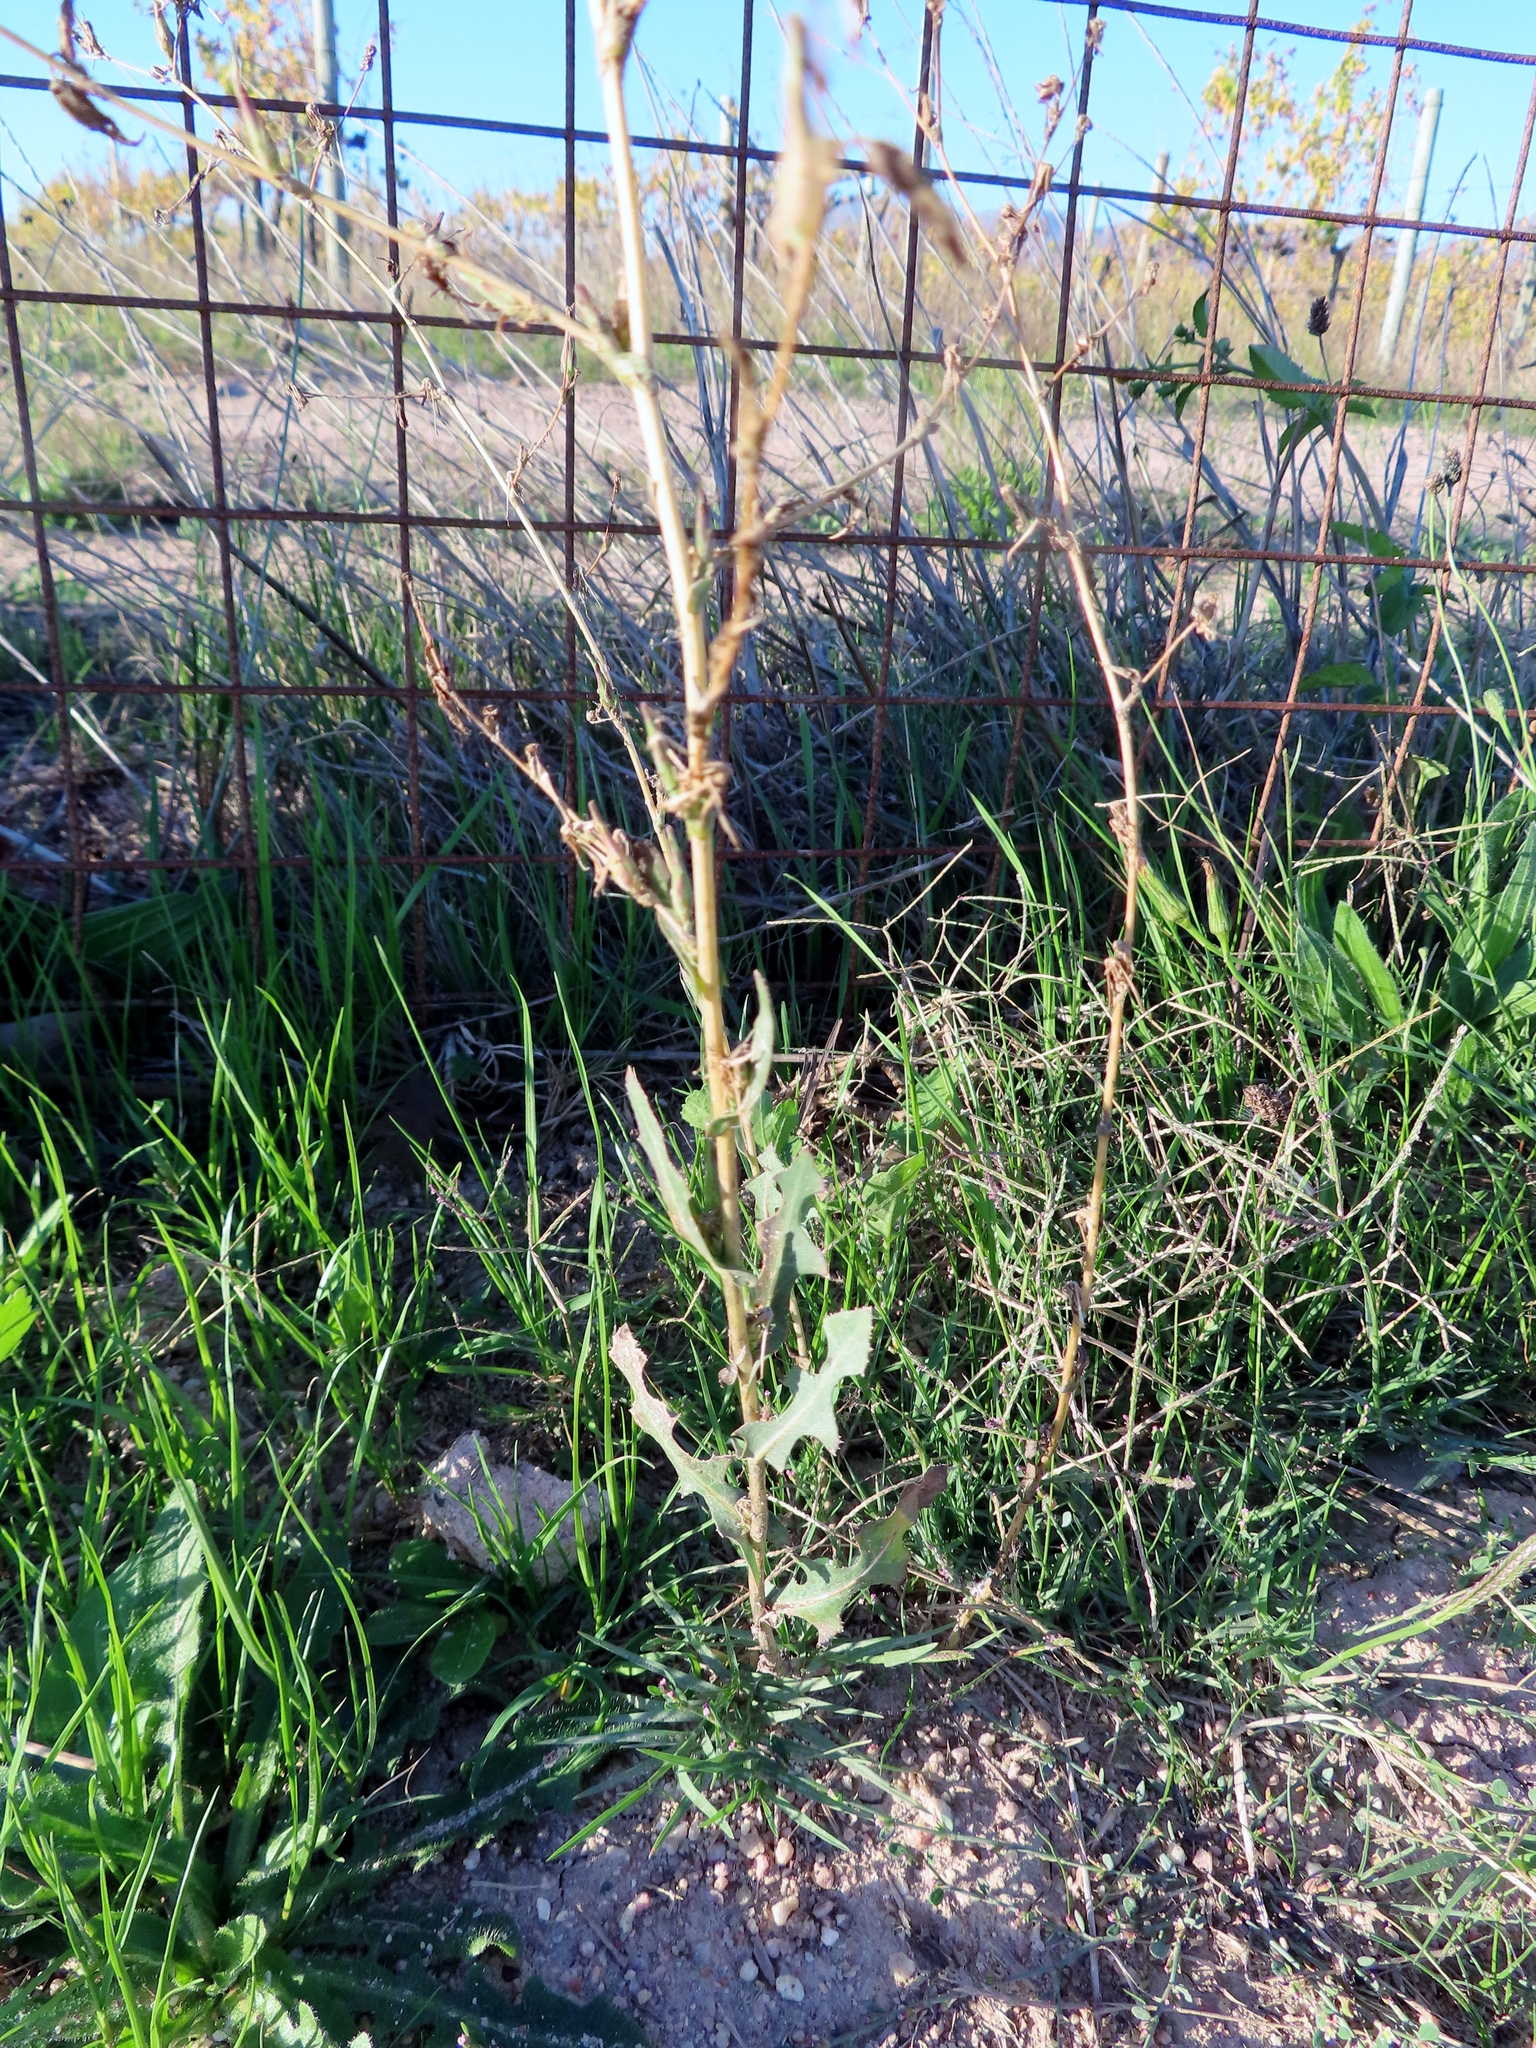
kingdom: Plantae
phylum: Tracheophyta
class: Magnoliopsida
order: Asterales
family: Asteraceae
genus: Lactuca
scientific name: Lactuca serriola
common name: Prickly lettuce
